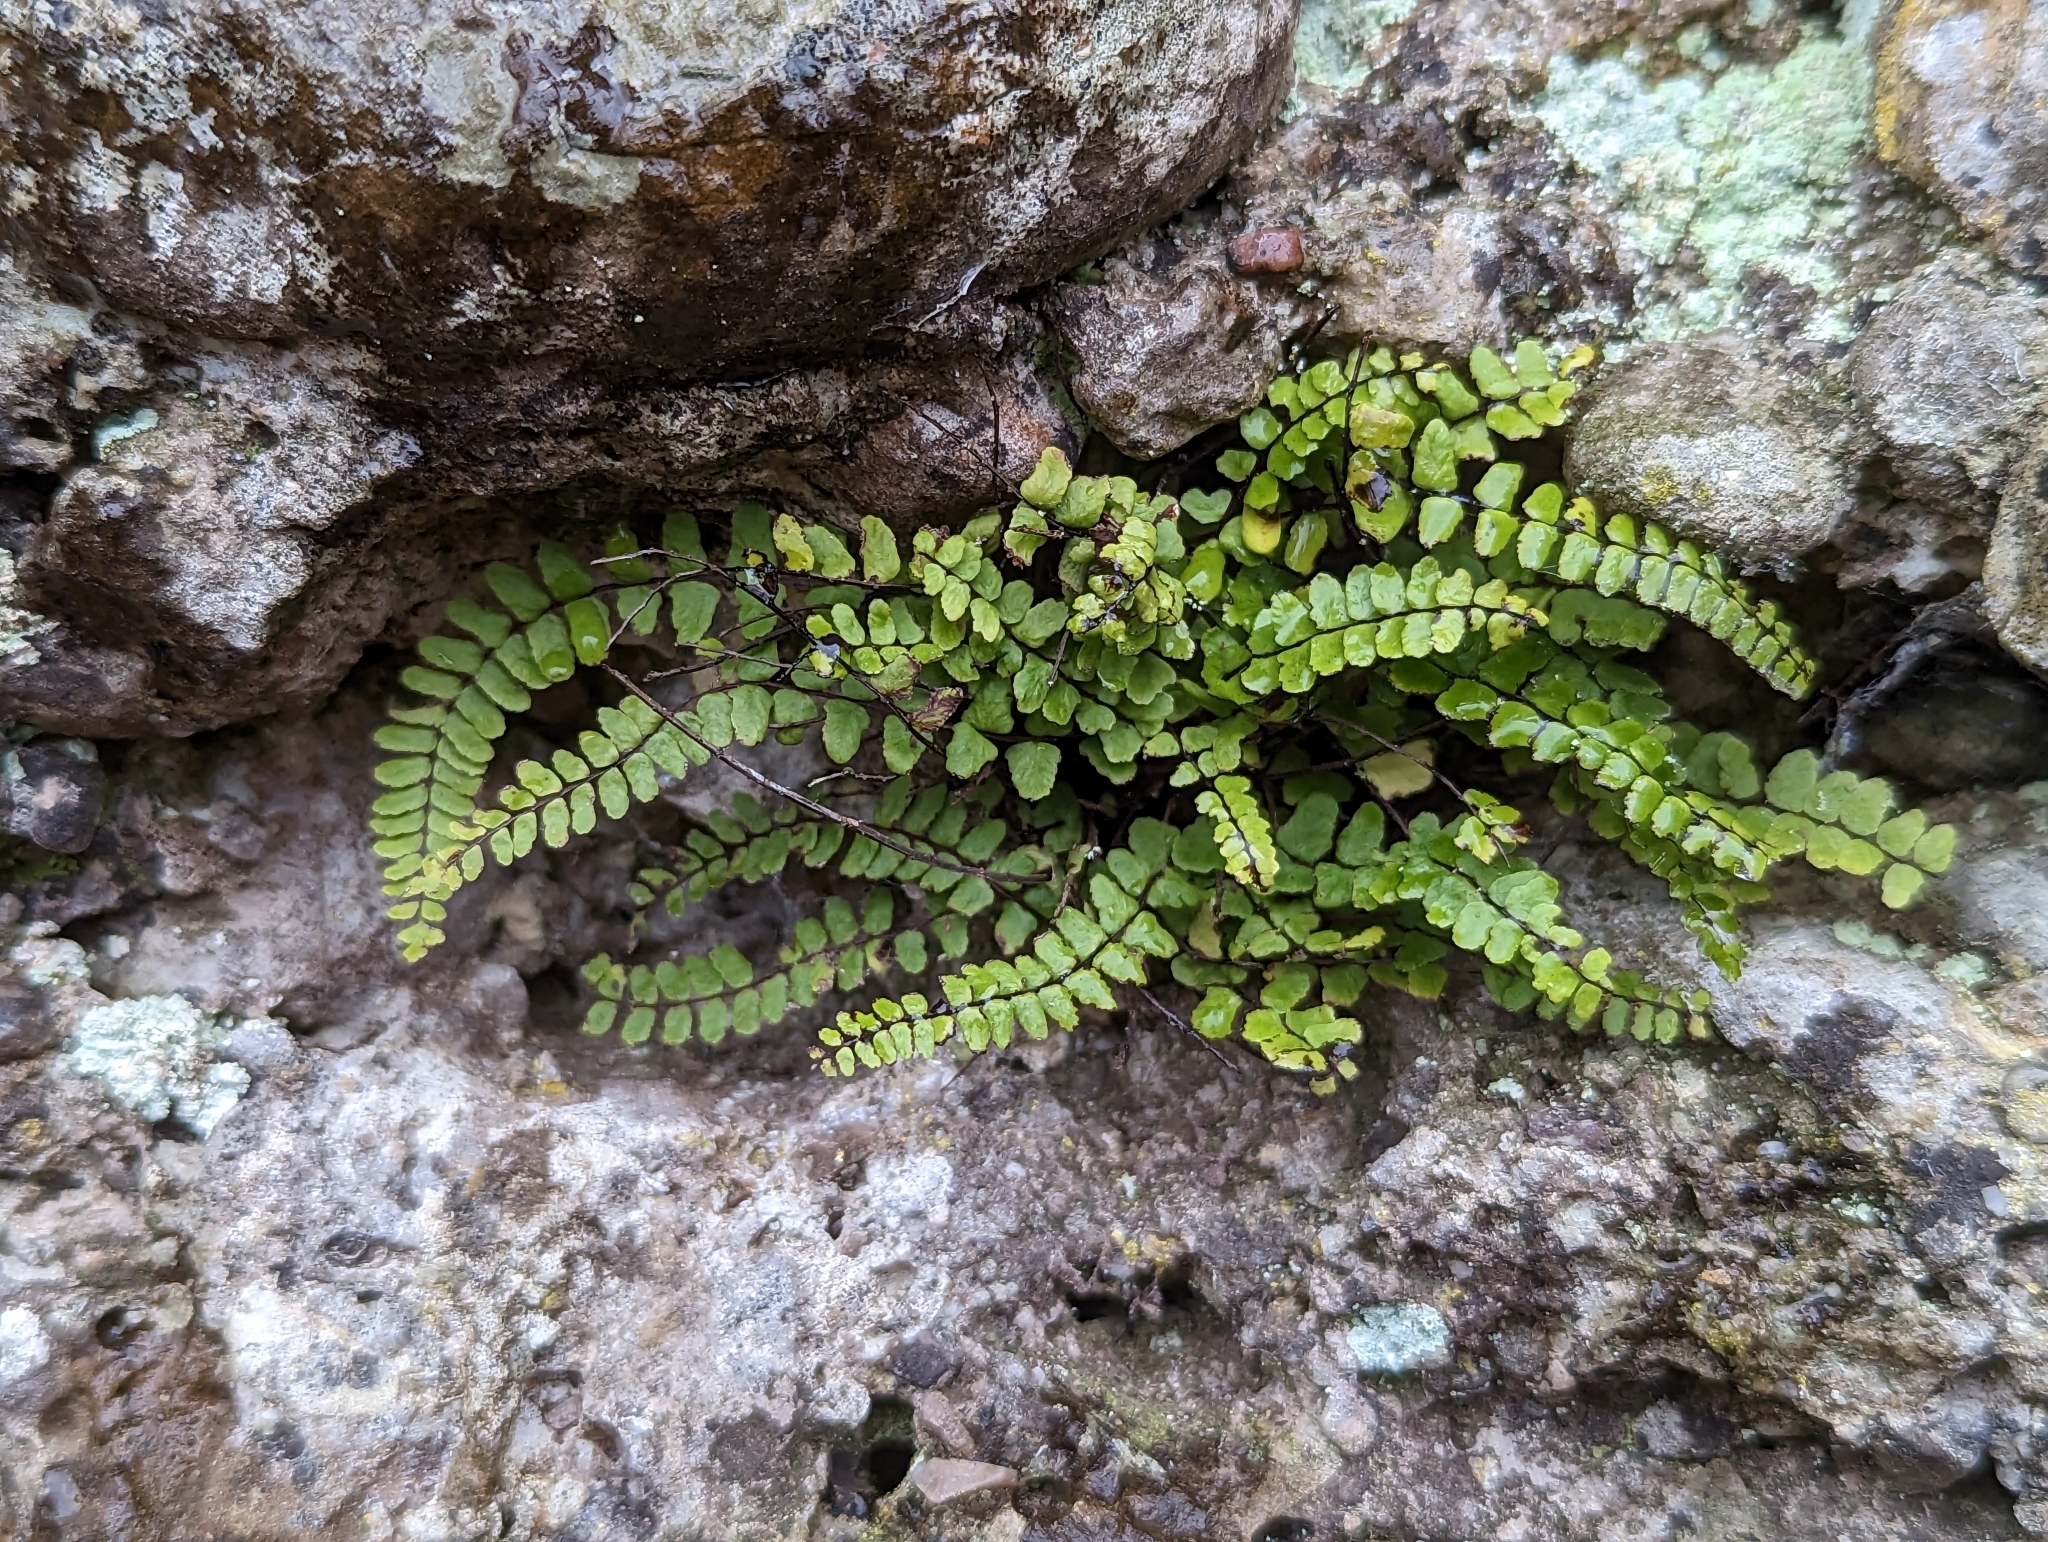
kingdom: Plantae
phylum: Tracheophyta
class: Polypodiopsida
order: Polypodiales
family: Aspleniaceae
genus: Asplenium
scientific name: Asplenium trichomanes
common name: Maidenhair spleenwort
